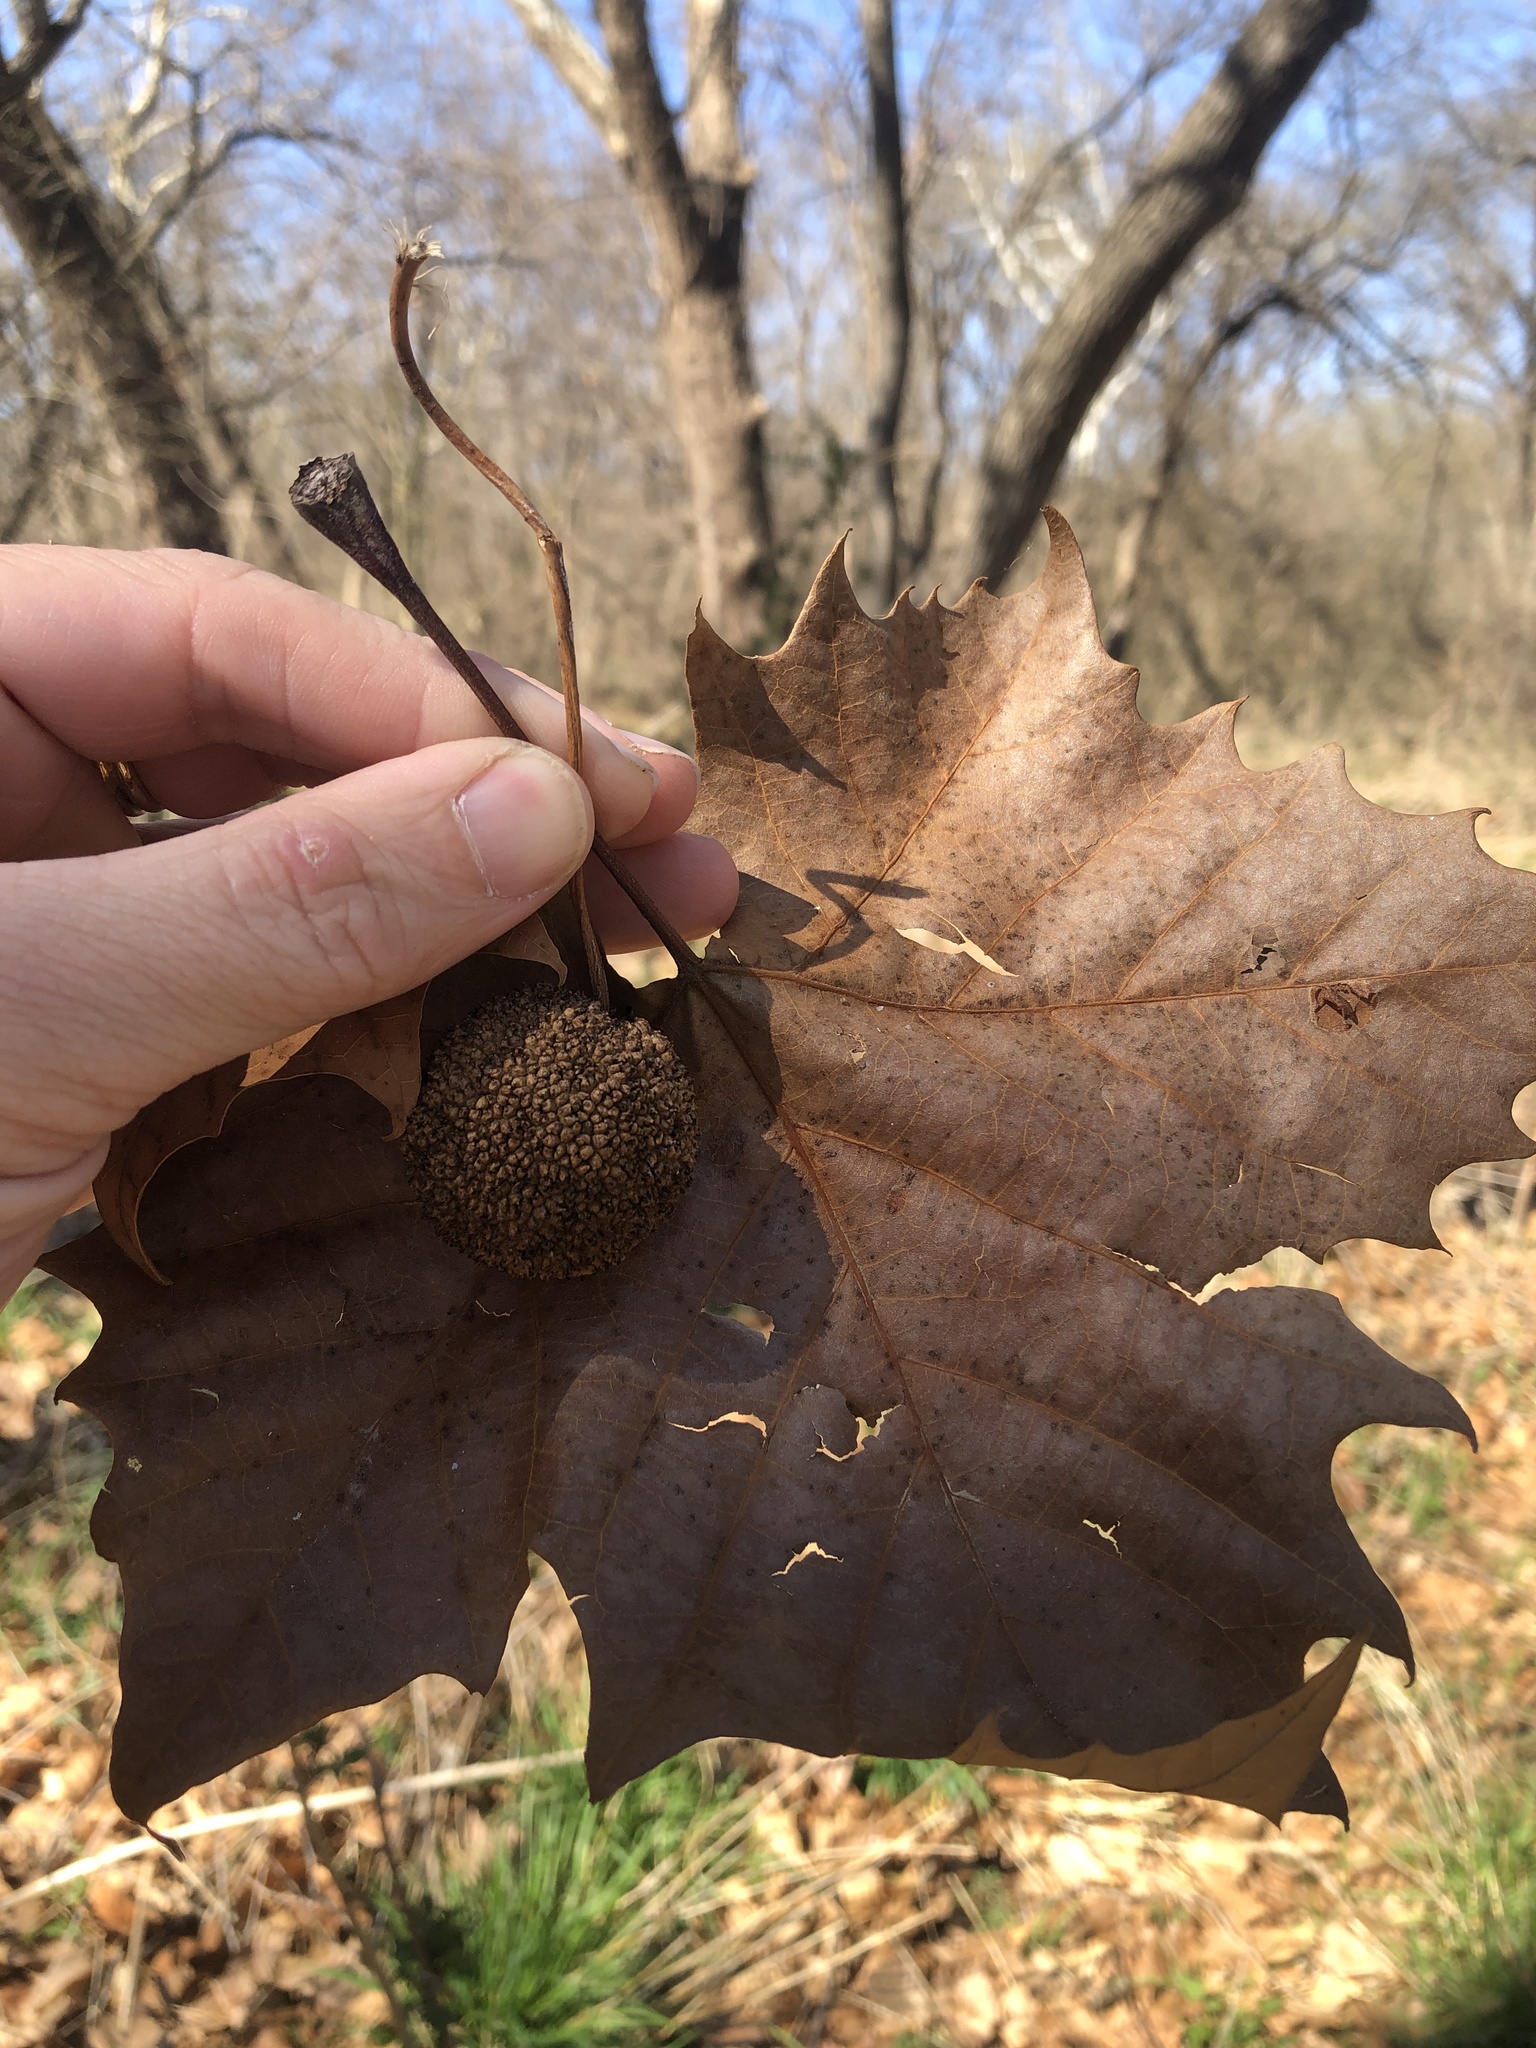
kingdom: Plantae
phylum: Tracheophyta
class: Magnoliopsida
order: Proteales
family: Platanaceae
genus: Platanus
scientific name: Platanus occidentalis
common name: American sycamore
